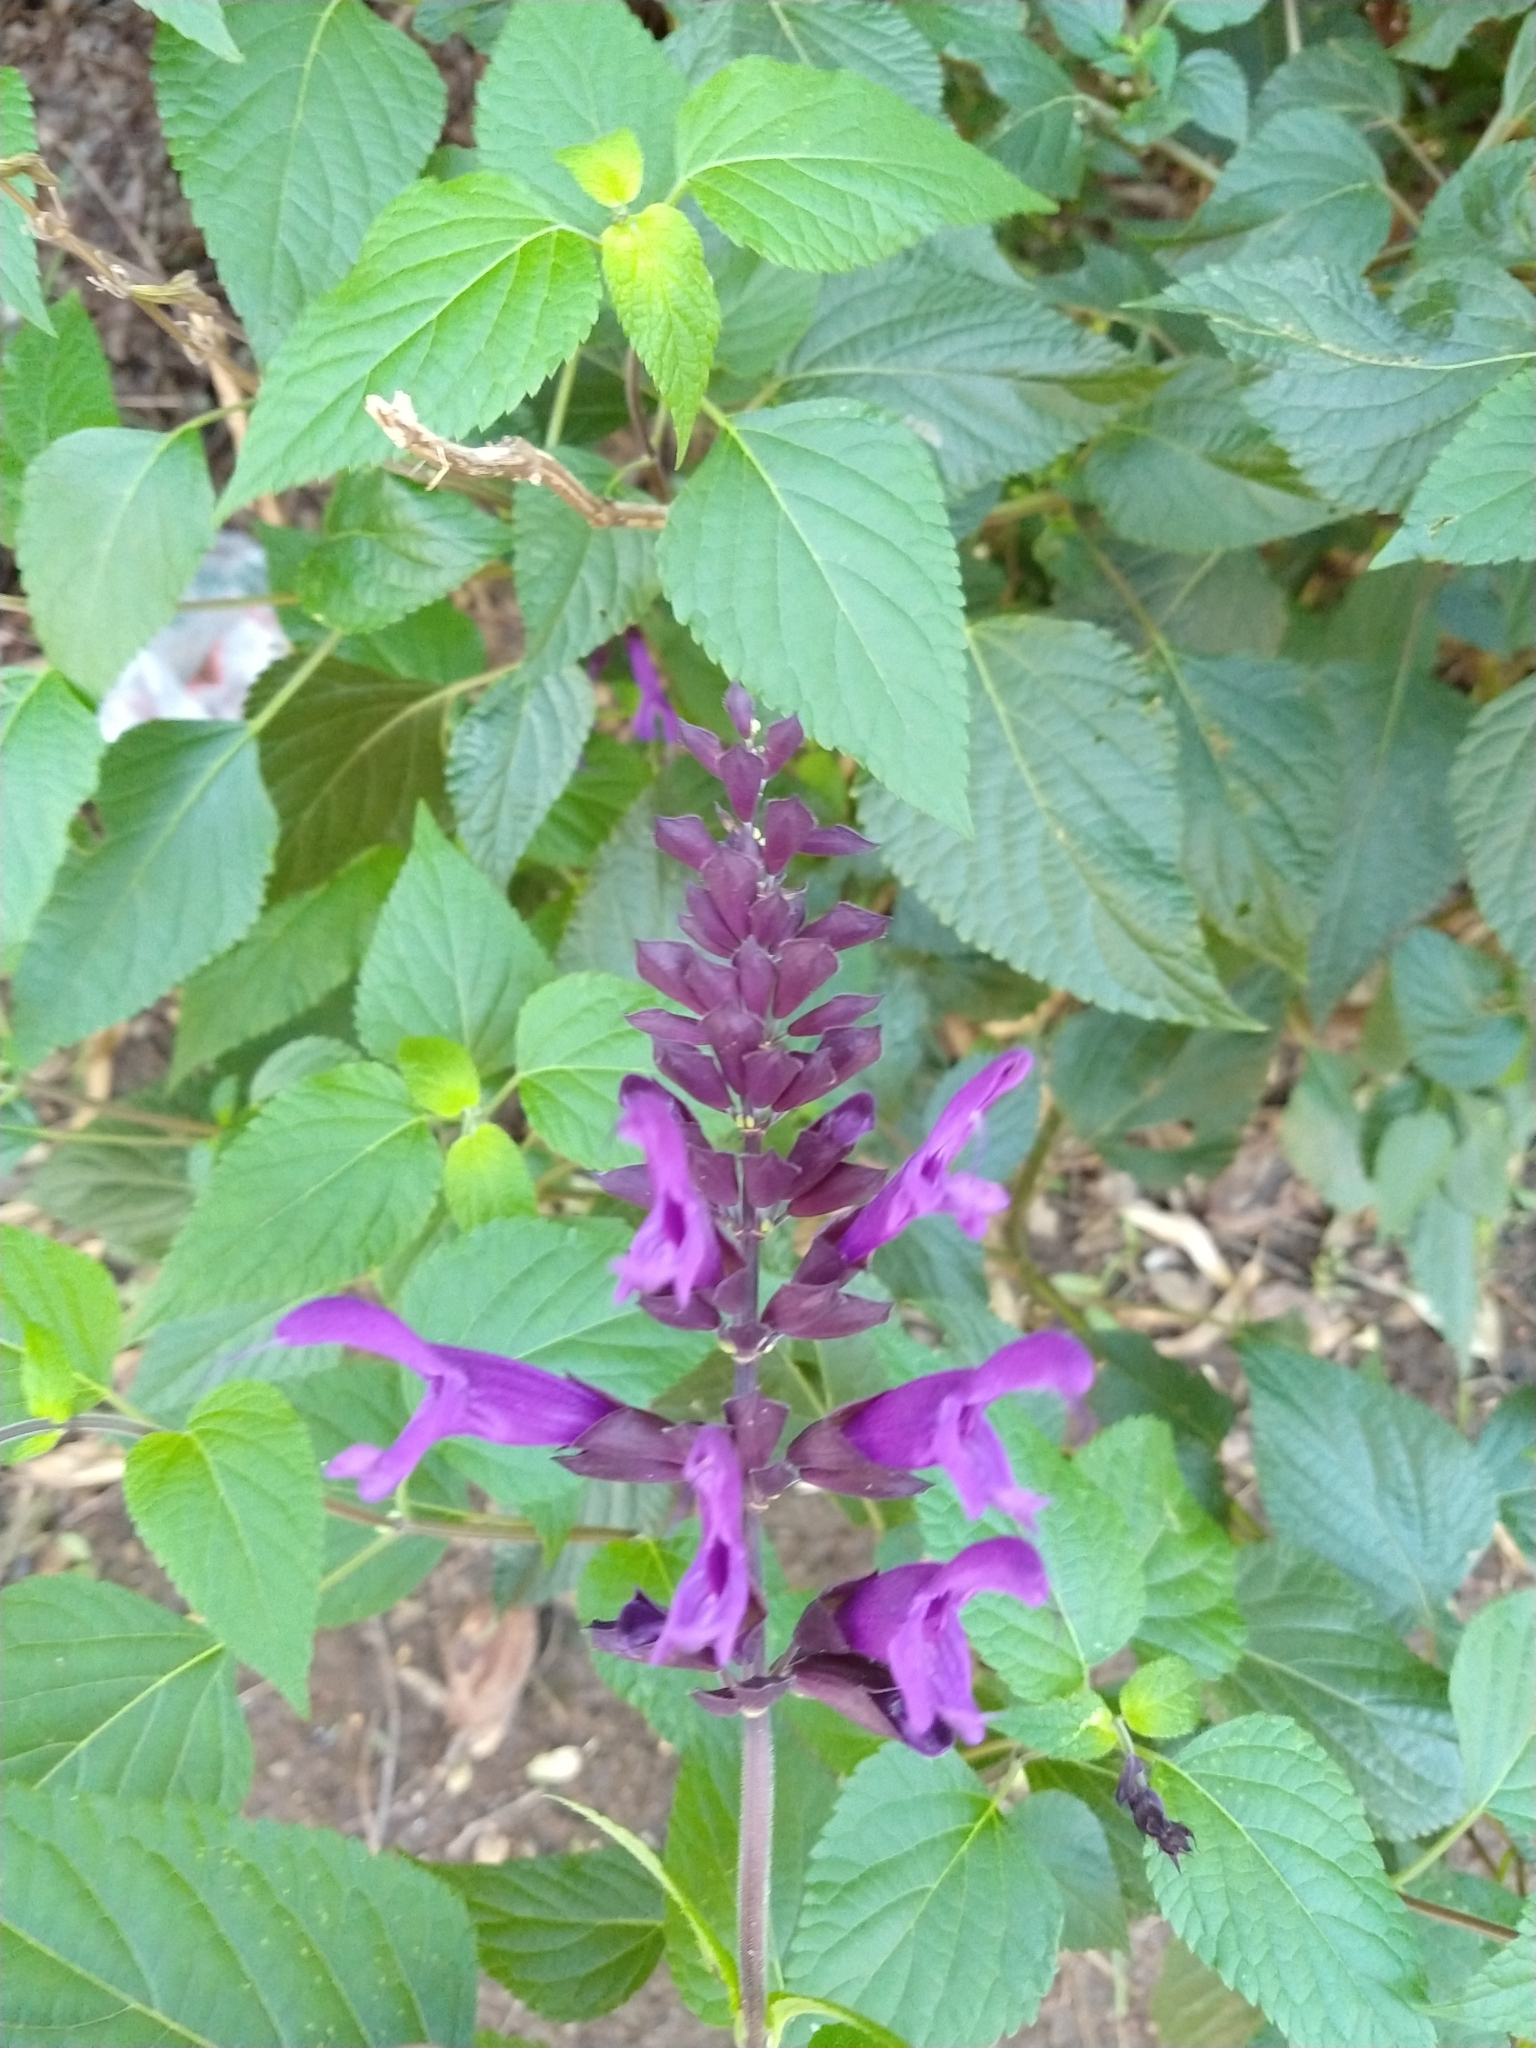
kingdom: Plantae
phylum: Tracheophyta
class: Magnoliopsida
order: Lamiales
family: Lamiaceae
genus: Salvia
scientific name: Salvia guaranitica
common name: Anise-scented sage
